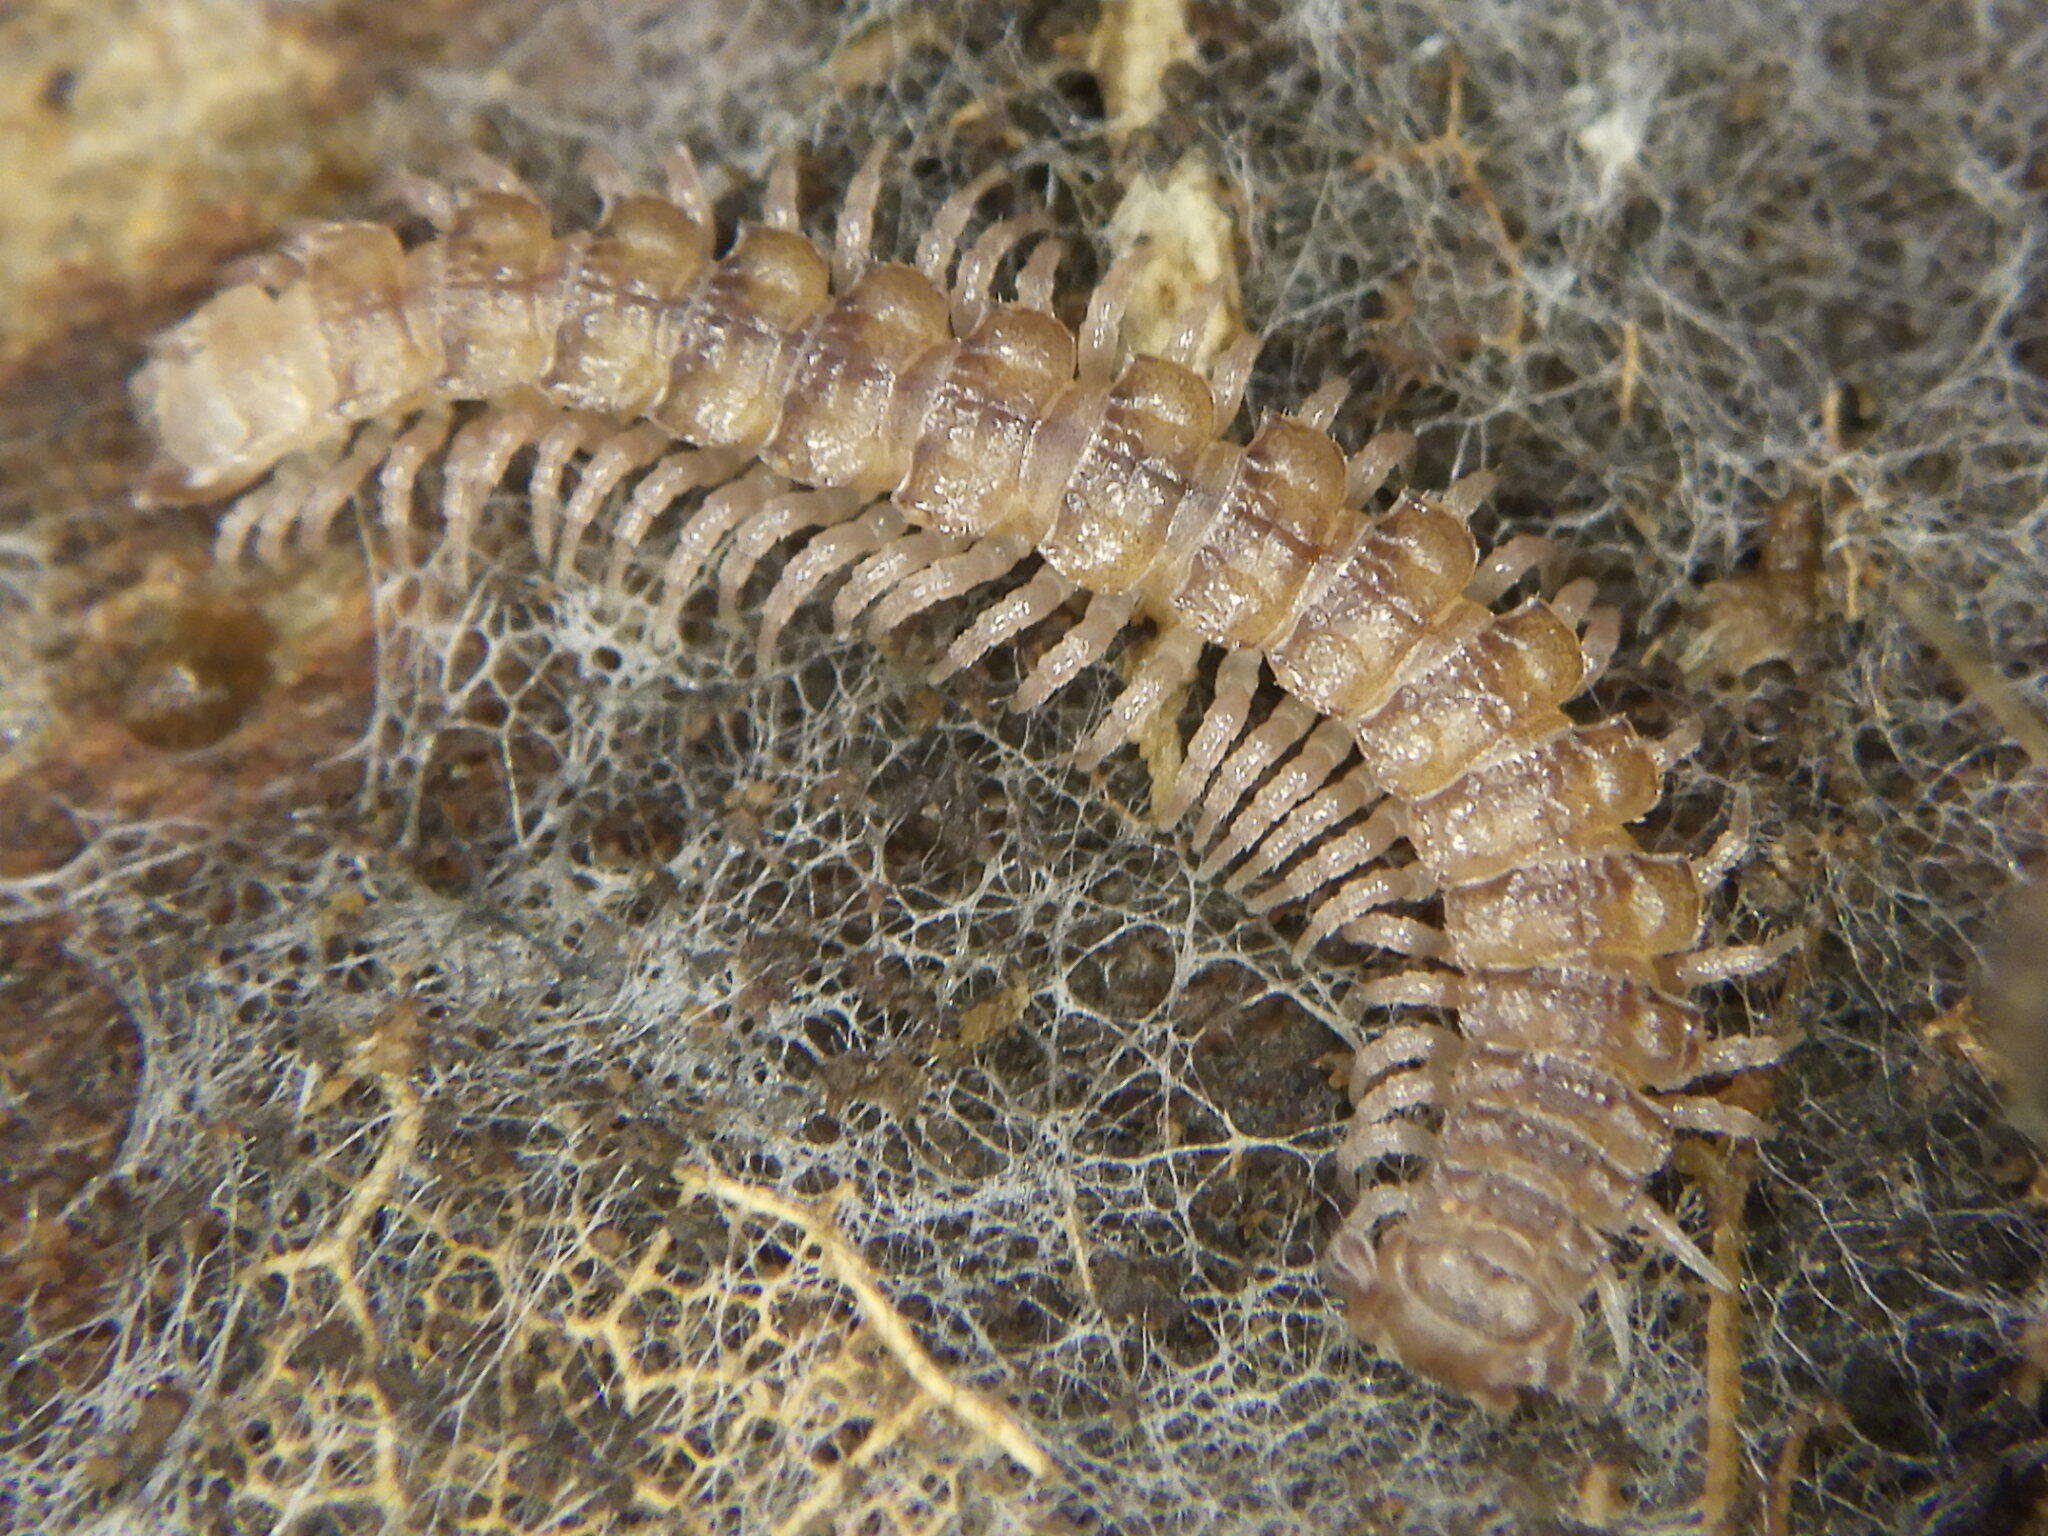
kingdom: Animalia
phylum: Arthropoda
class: Diplopoda
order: Polydesmida
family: Polydesmidae
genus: Polydesmus
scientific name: Polydesmus angustus
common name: Flat millipede
